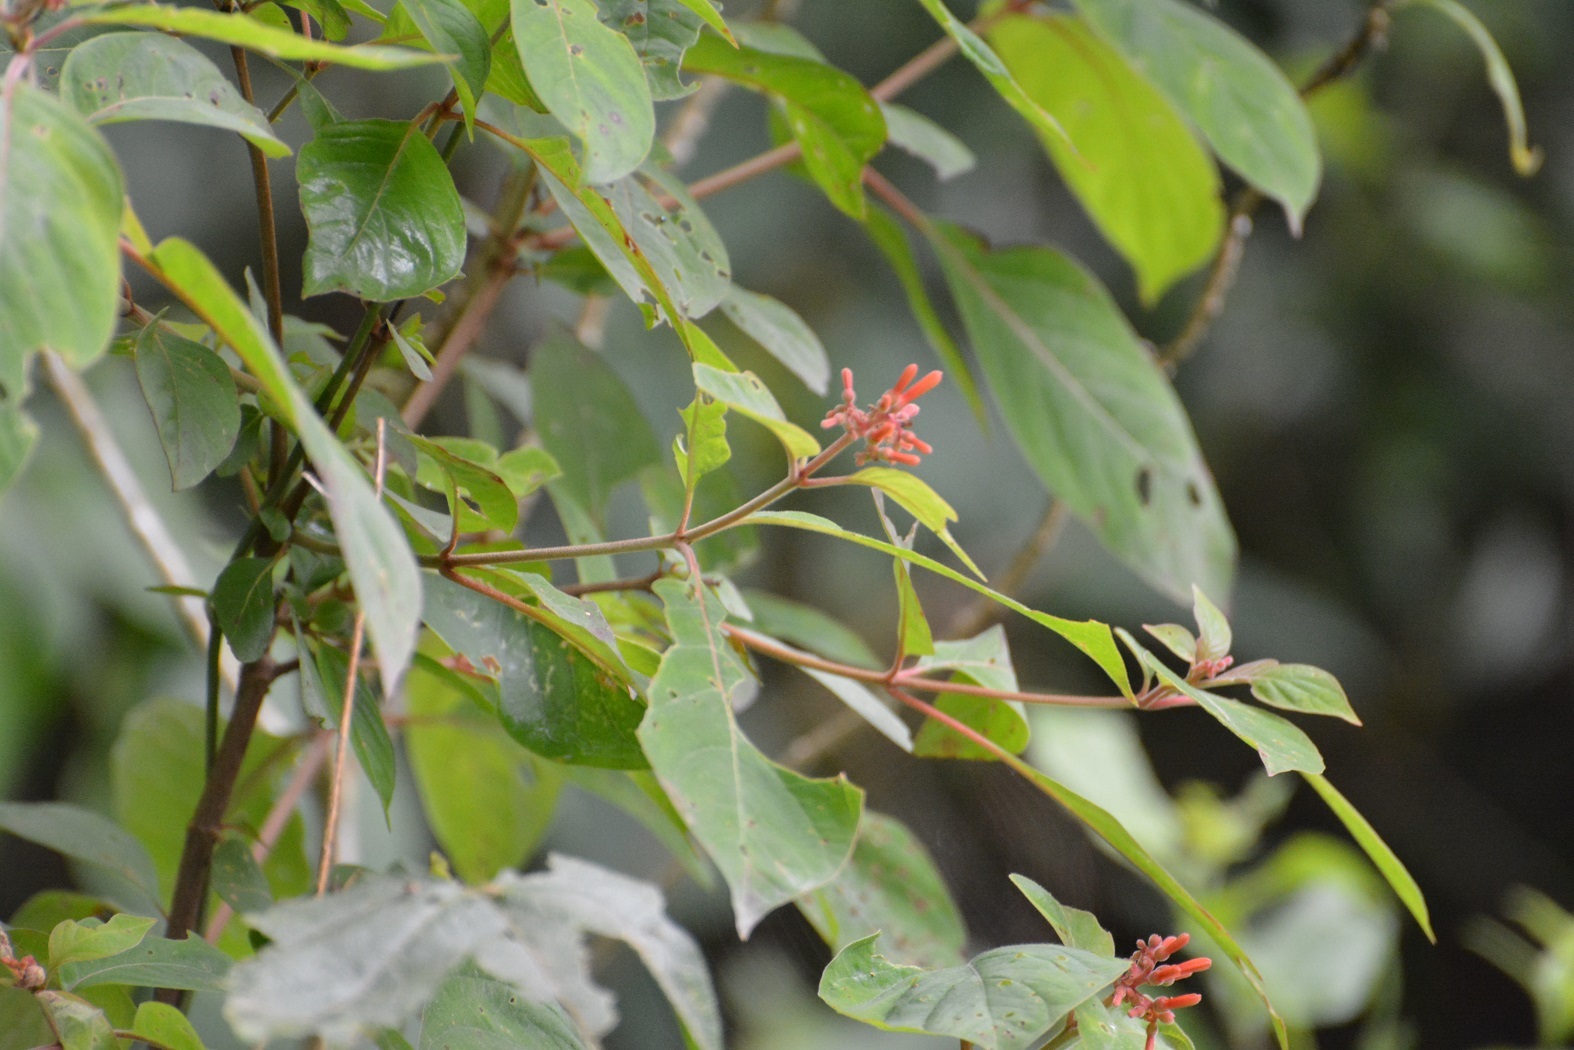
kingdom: Plantae
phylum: Tracheophyta
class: Magnoliopsida
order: Gentianales
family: Rubiaceae
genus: Hamelia
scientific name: Hamelia patens
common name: Redhead
